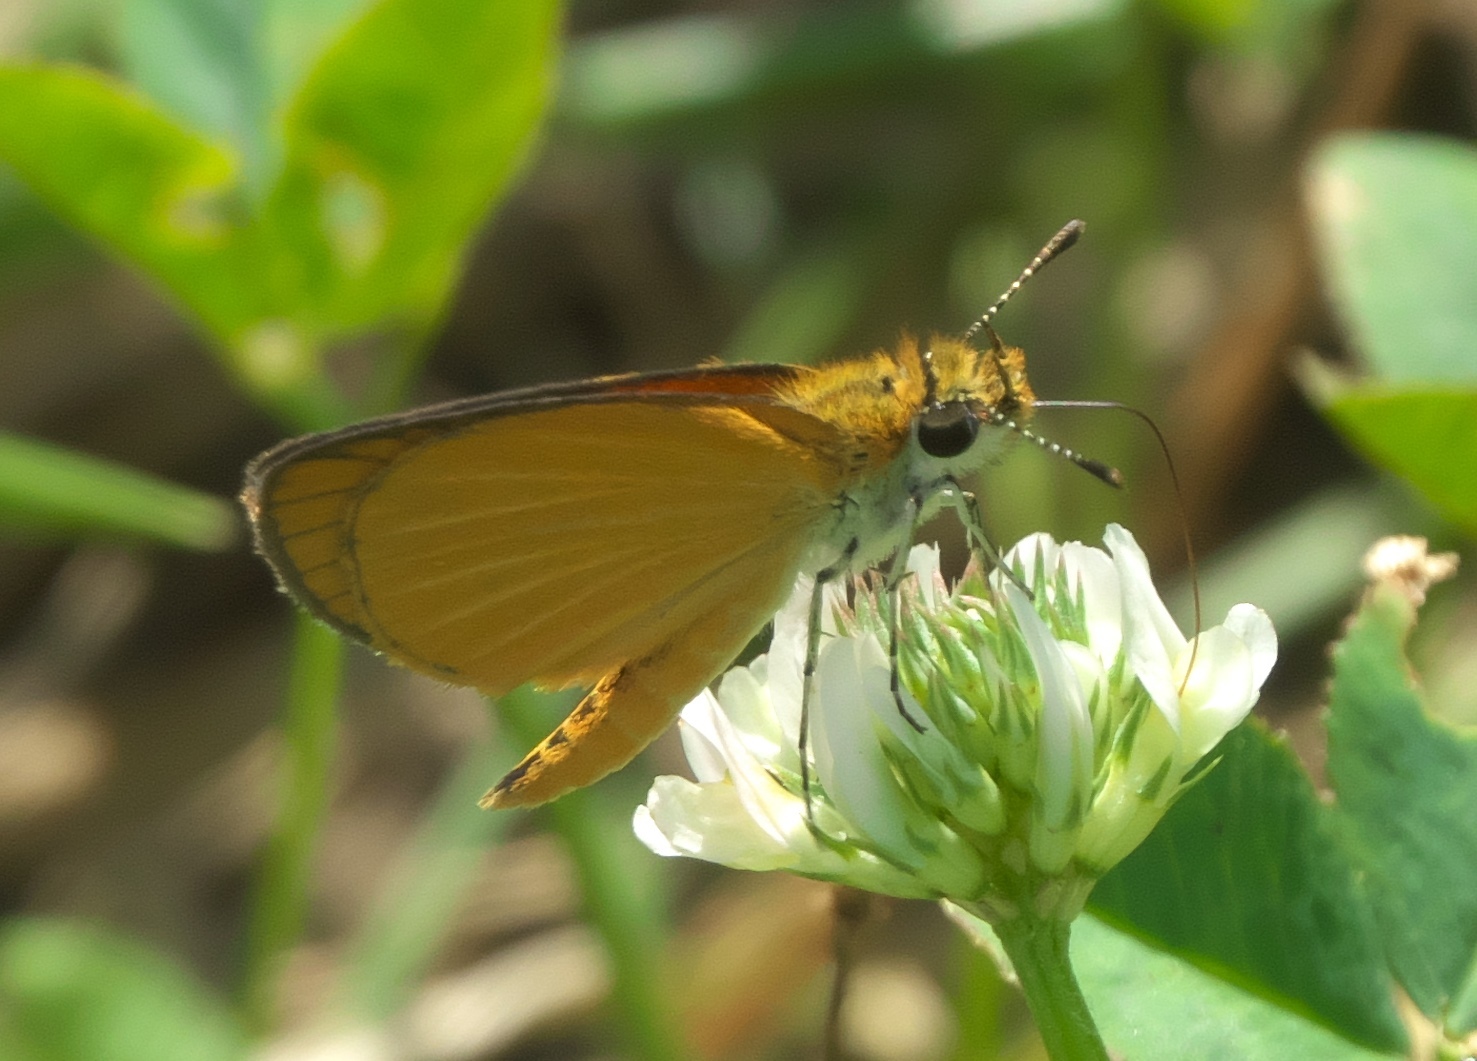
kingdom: Animalia
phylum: Arthropoda
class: Insecta
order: Lepidoptera
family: Hesperiidae
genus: Ancyloxypha
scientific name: Ancyloxypha numitor
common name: Least skipper
